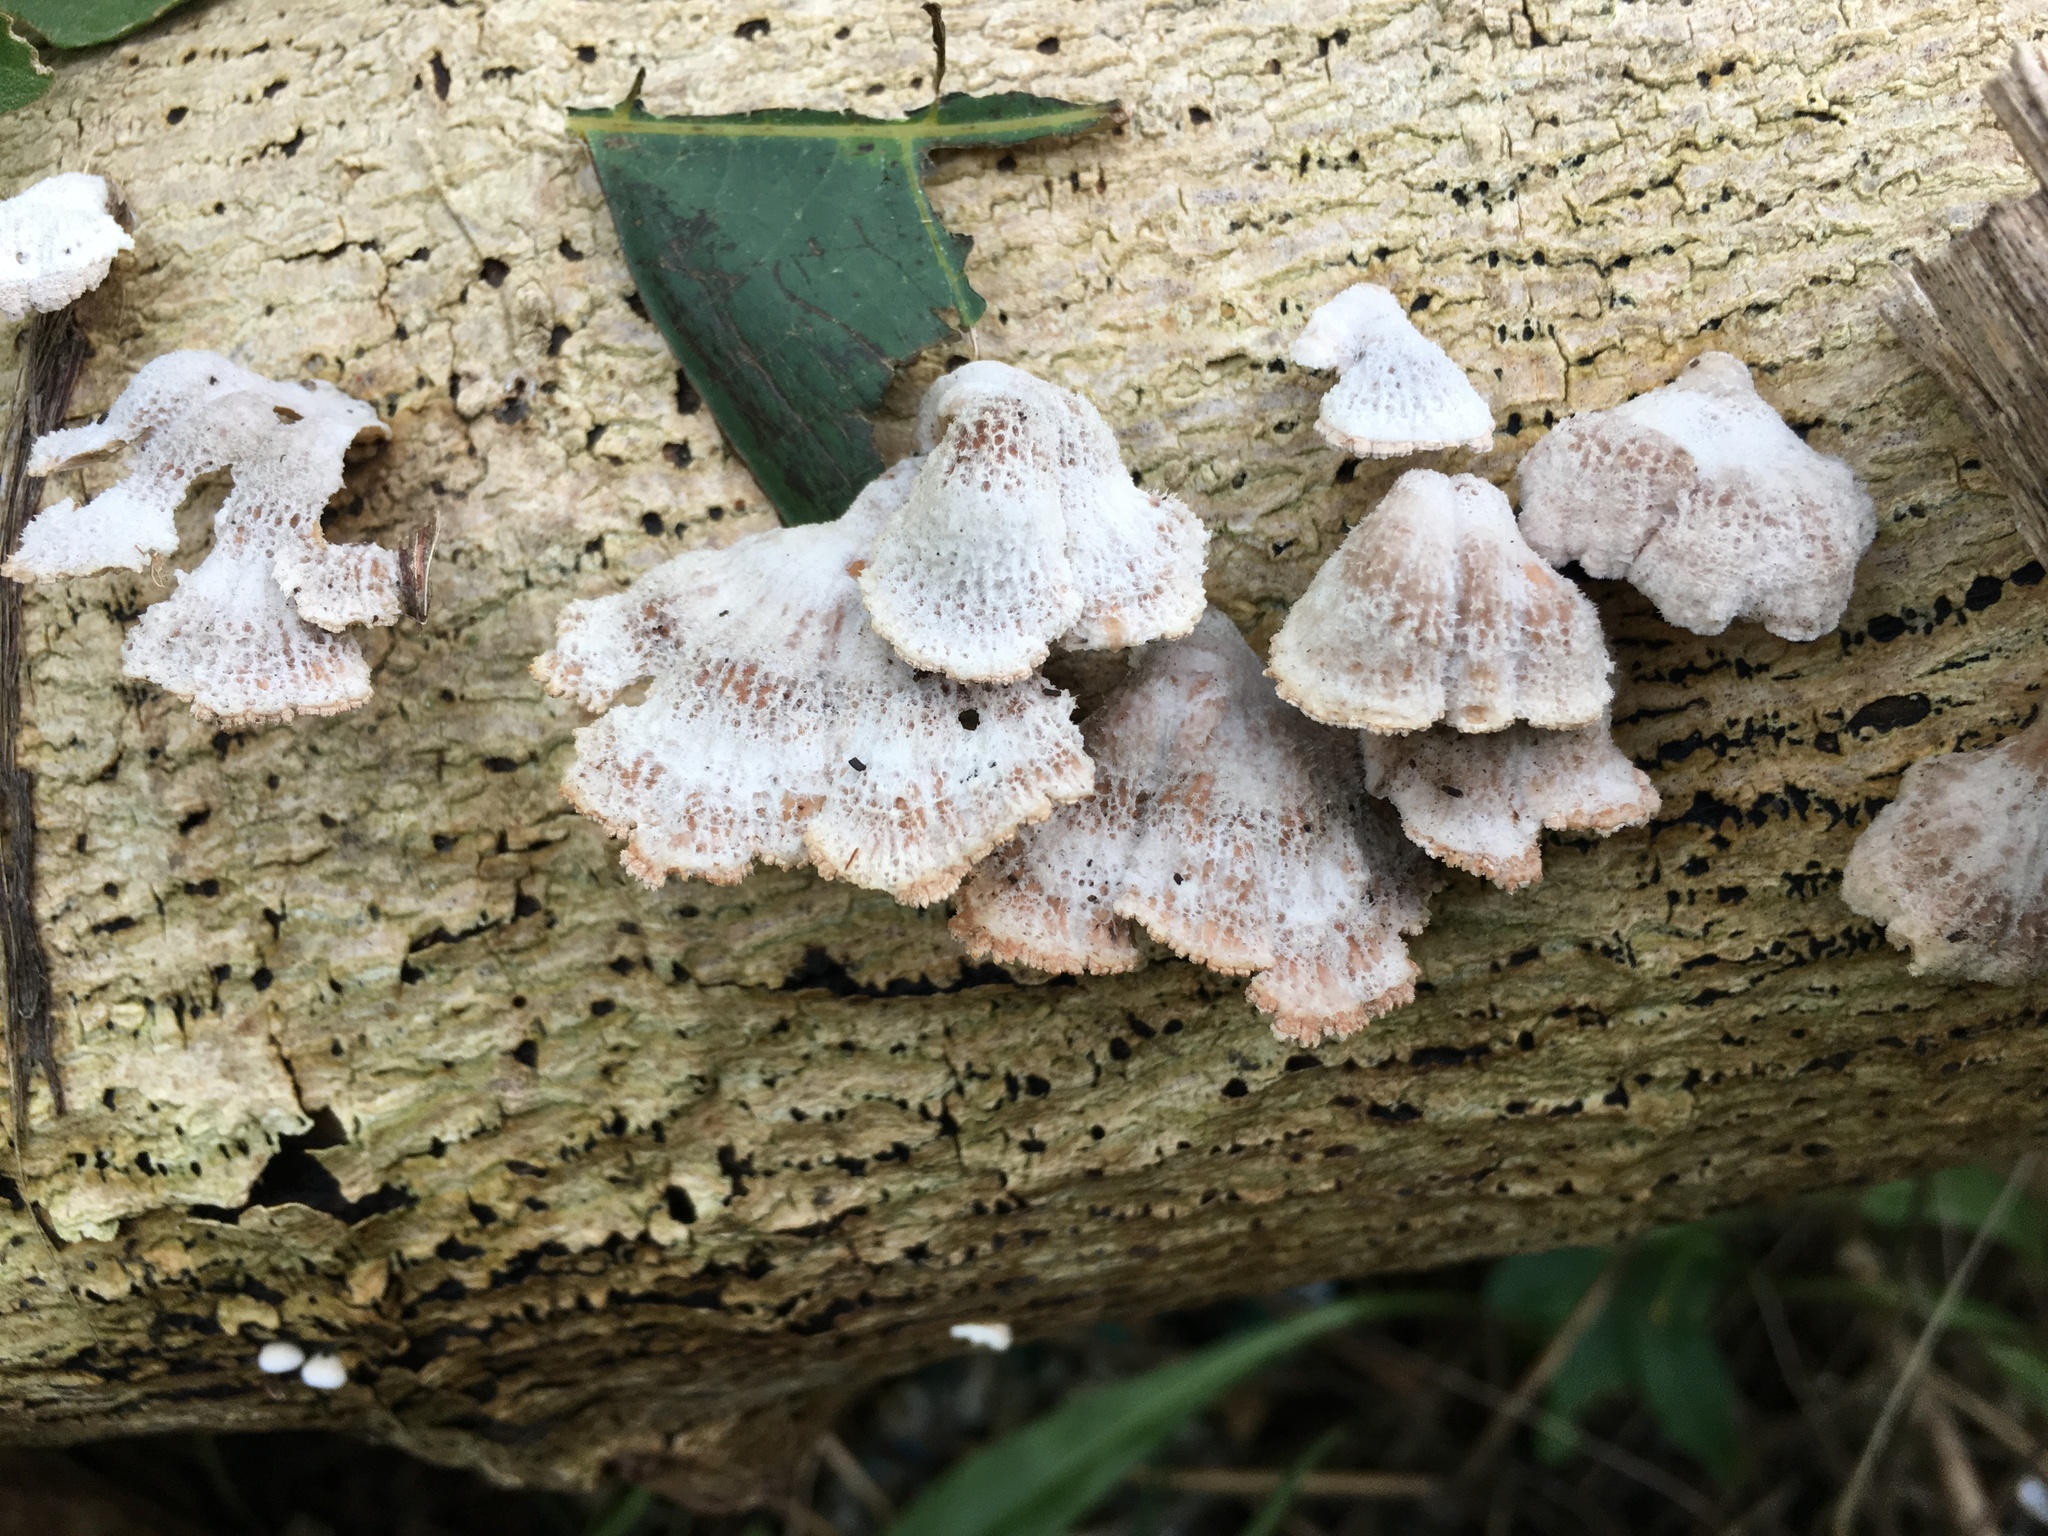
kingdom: Fungi
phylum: Basidiomycota
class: Agaricomycetes
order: Agaricales
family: Schizophyllaceae
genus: Schizophyllum
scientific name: Schizophyllum commune
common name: Common porecrust
